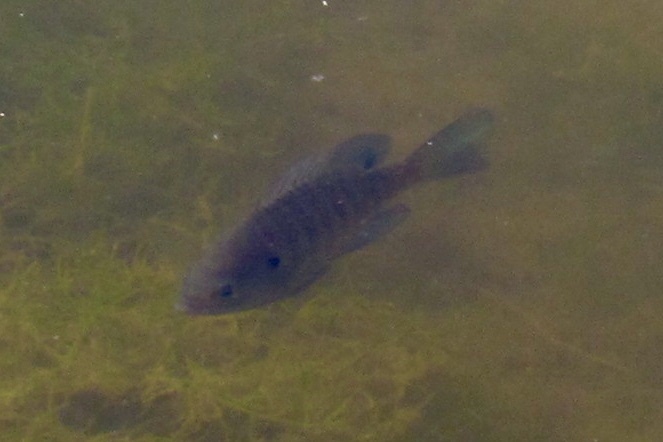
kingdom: Animalia
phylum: Chordata
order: Perciformes
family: Centrarchidae
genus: Lepomis
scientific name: Lepomis macrochirus
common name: Bluegill
